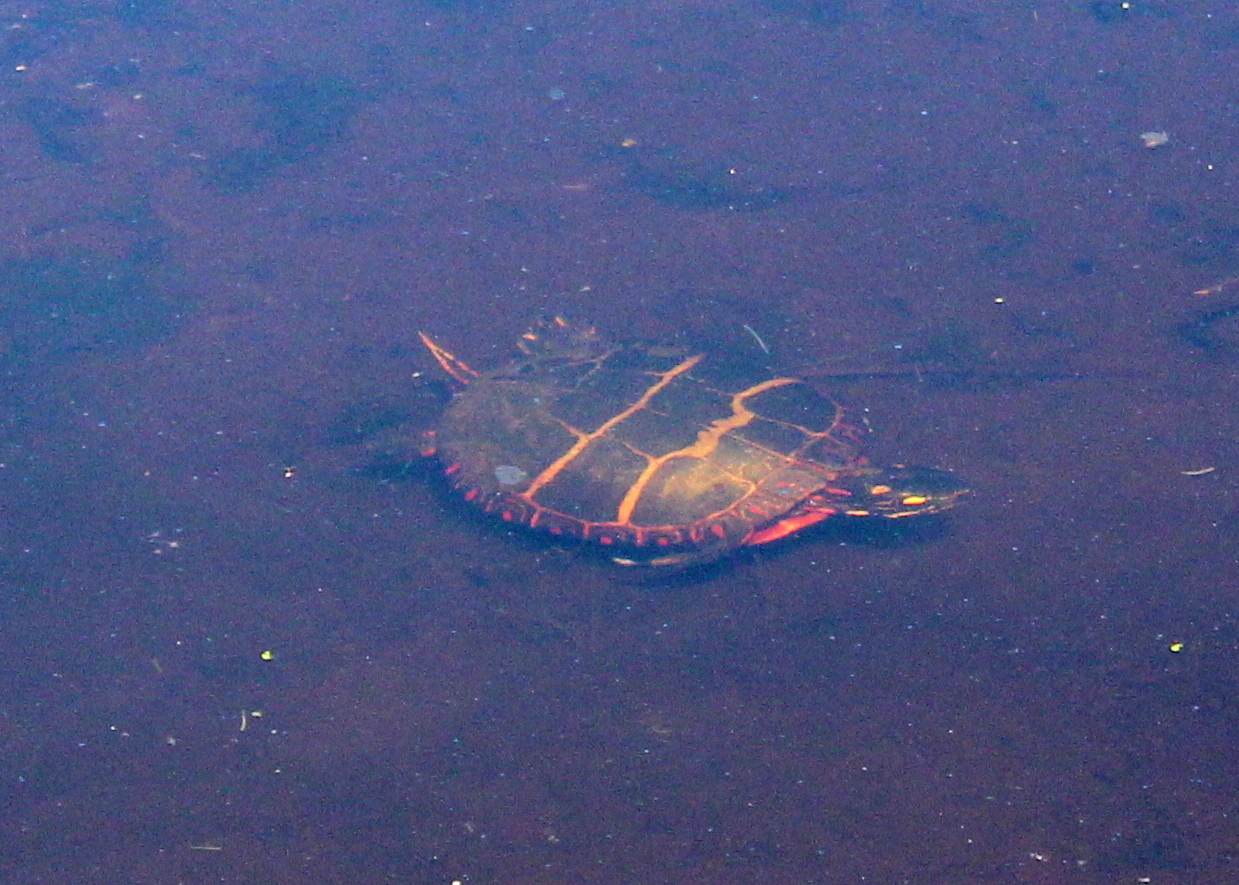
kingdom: Animalia
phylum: Chordata
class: Testudines
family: Emydidae
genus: Chrysemys
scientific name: Chrysemys picta
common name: Painted turtle
